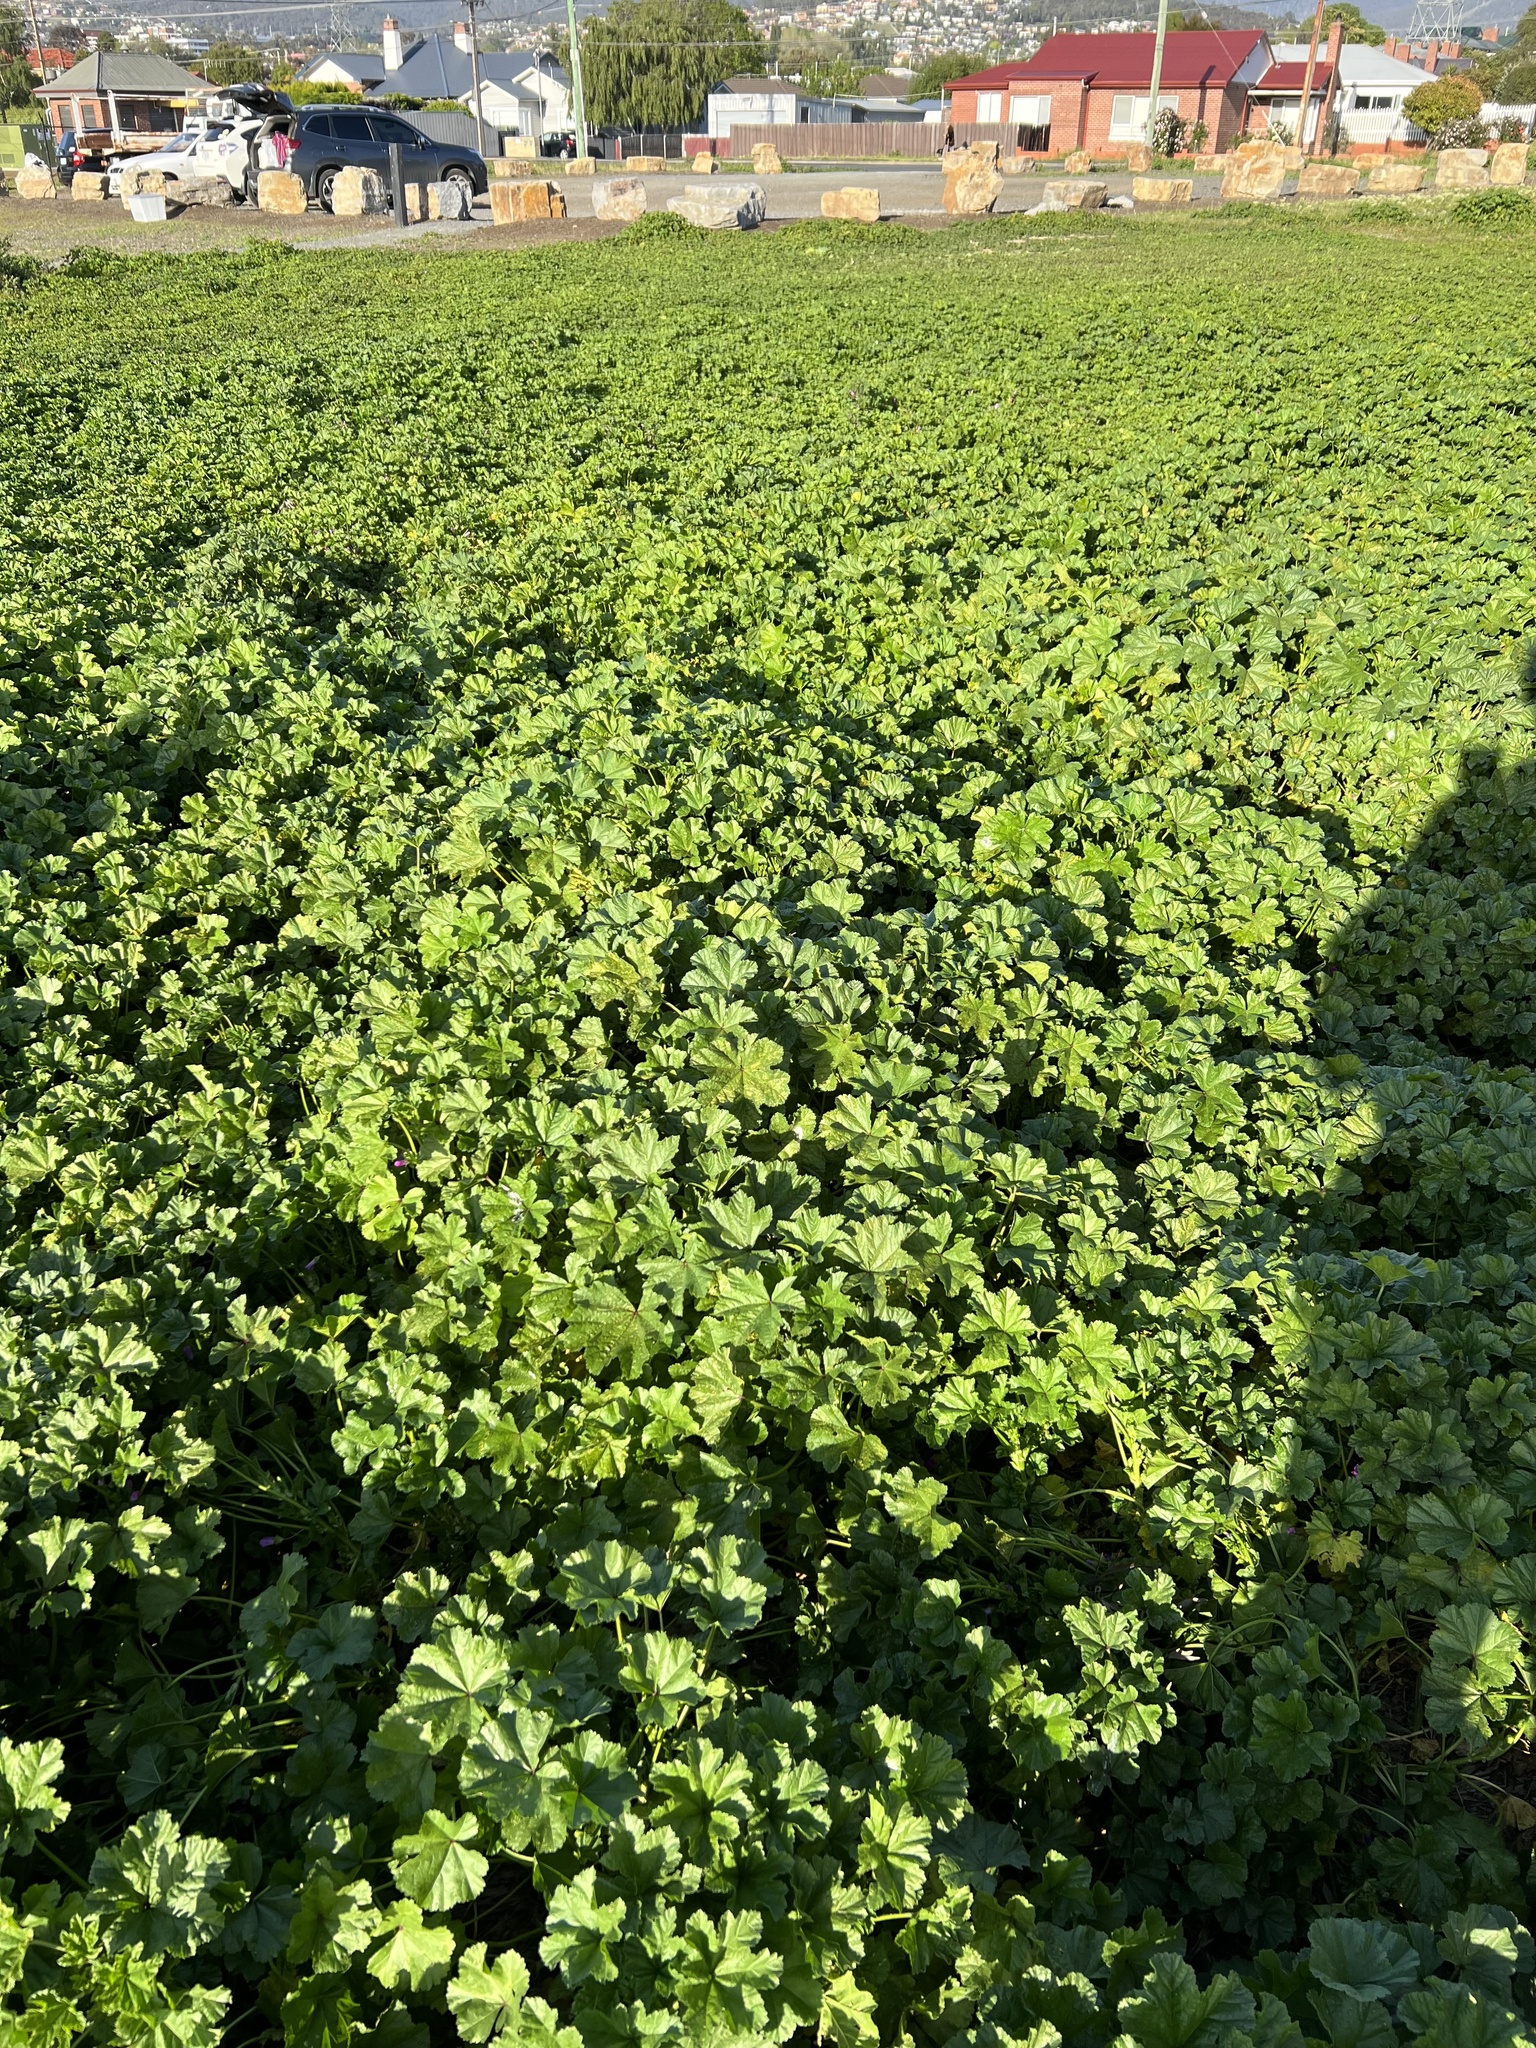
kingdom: Plantae
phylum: Tracheophyta
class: Magnoliopsida
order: Malvales
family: Malvaceae
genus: Malva
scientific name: Malva sylvestris
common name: Common mallow
